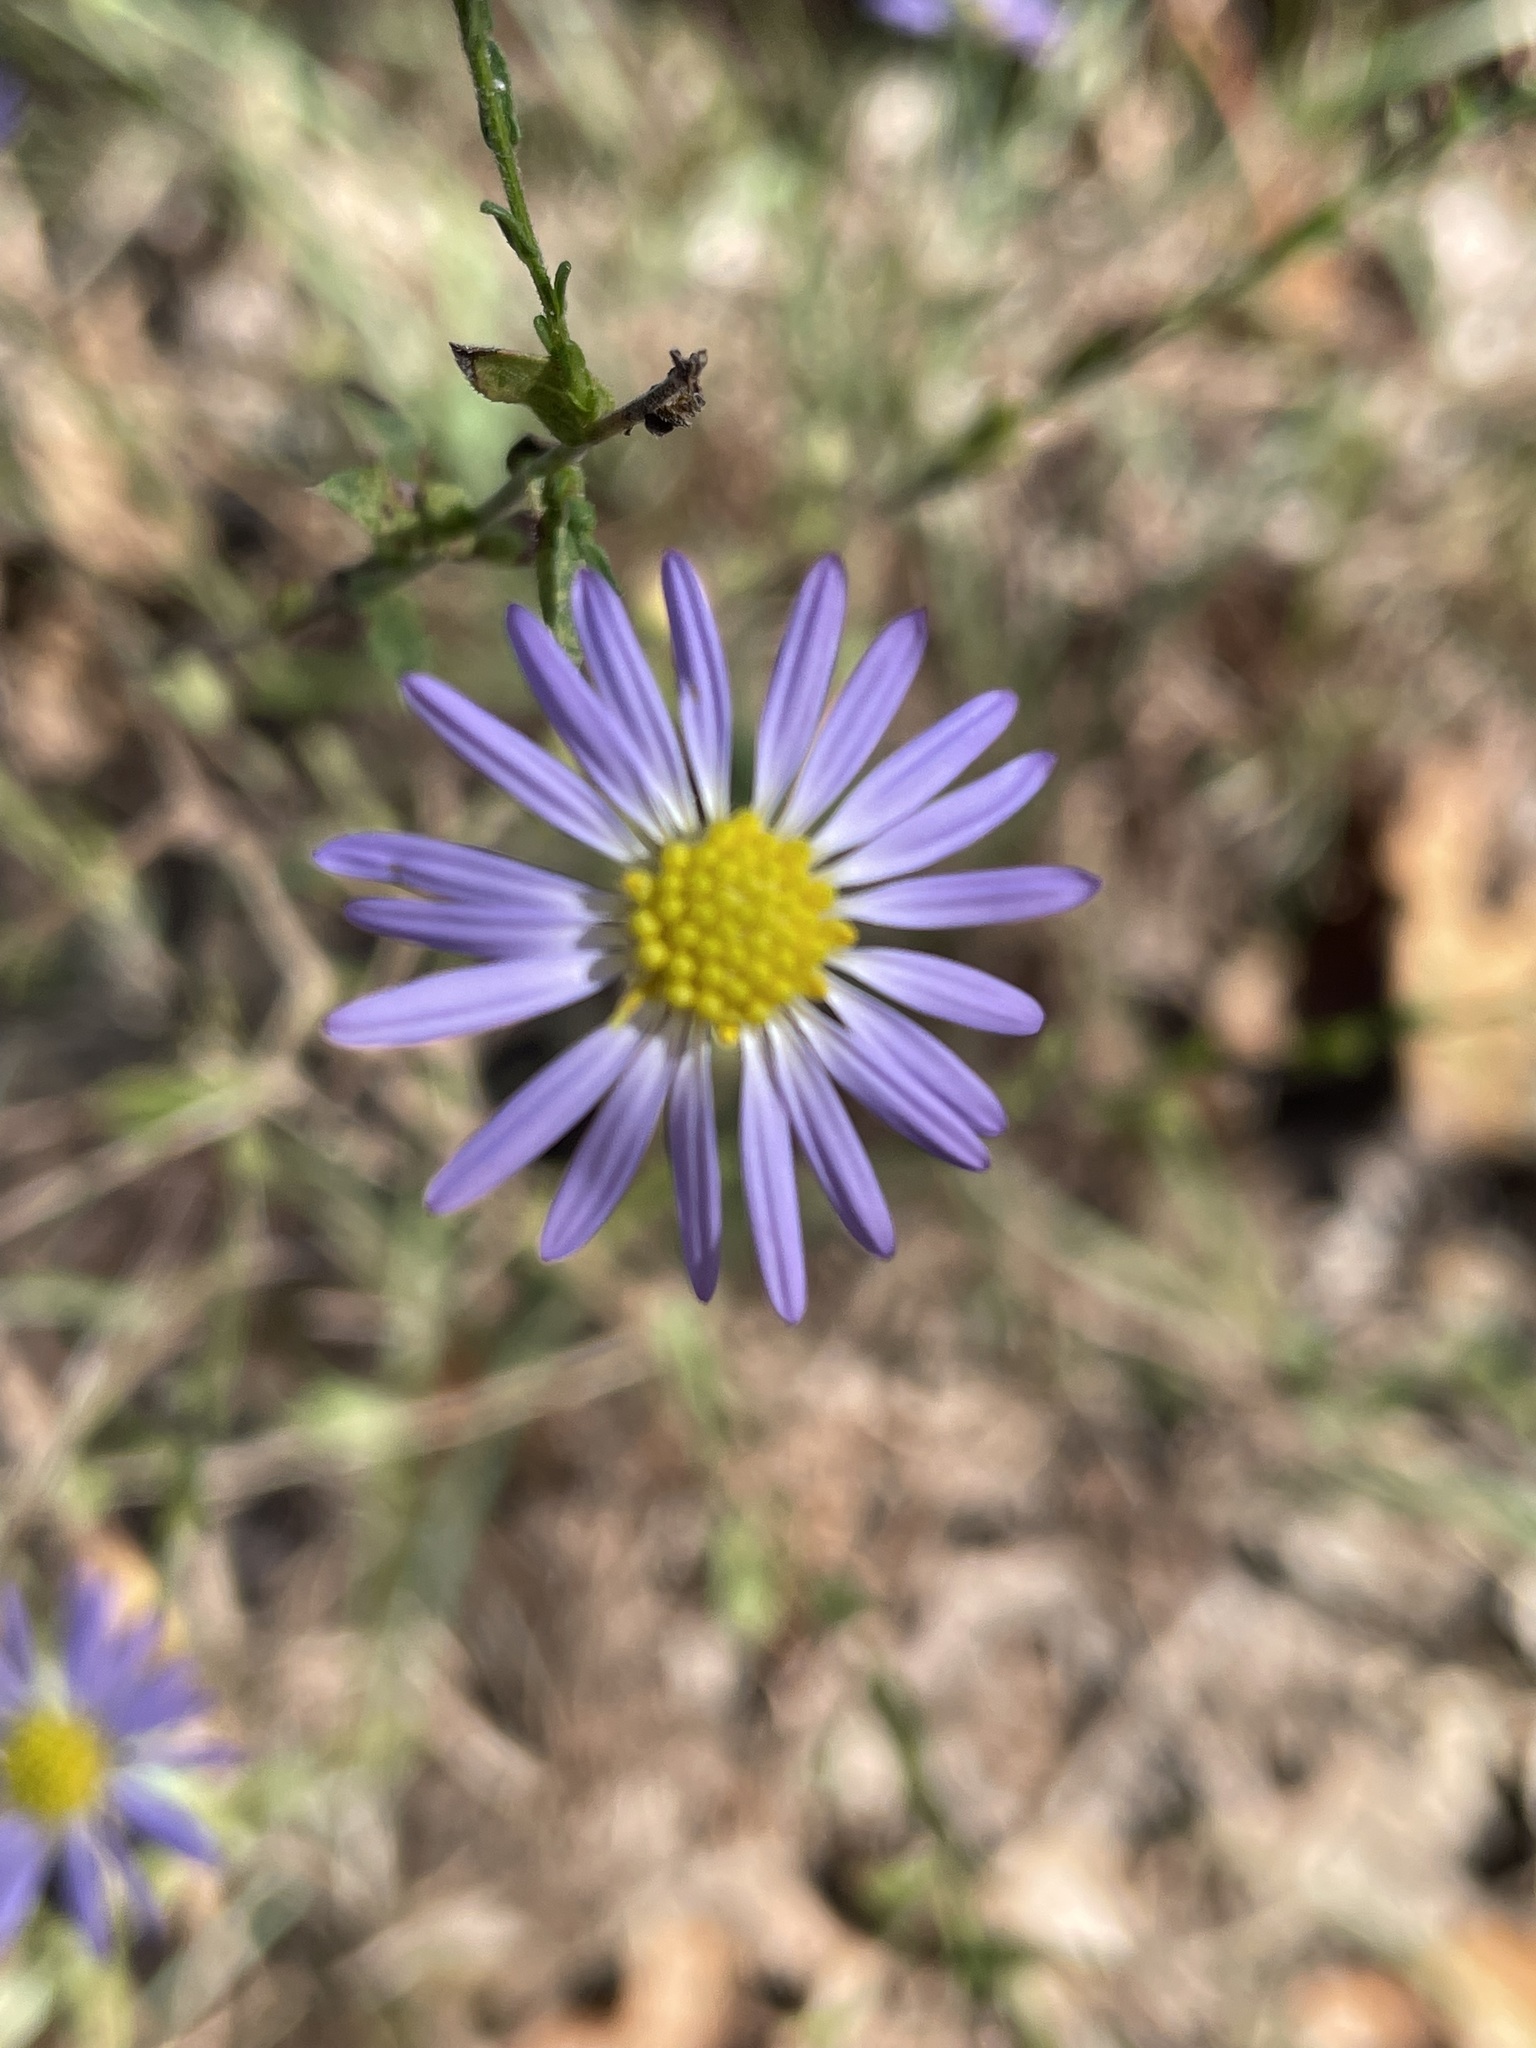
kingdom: Plantae
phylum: Tracheophyta
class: Magnoliopsida
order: Asterales
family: Asteraceae
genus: Symphyotrichum
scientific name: Symphyotrichum patens
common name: Late purple aster
